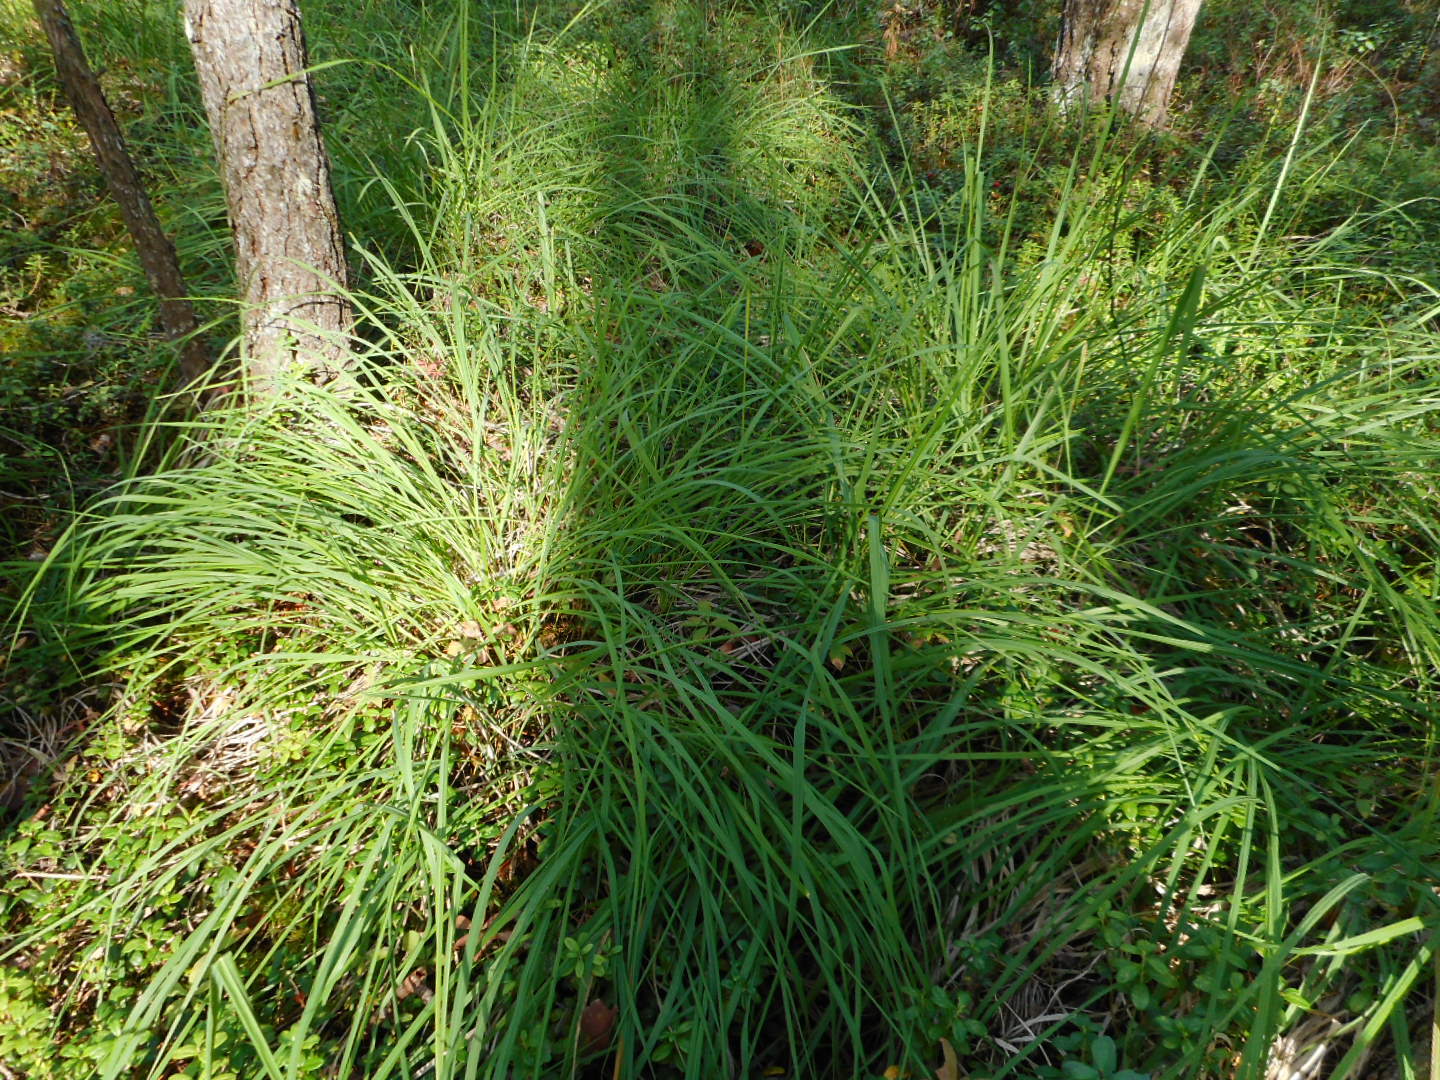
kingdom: Plantae
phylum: Tracheophyta
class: Liliopsida
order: Poales
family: Poaceae
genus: Molinia
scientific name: Molinia caerulea
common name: Purple moor-grass
